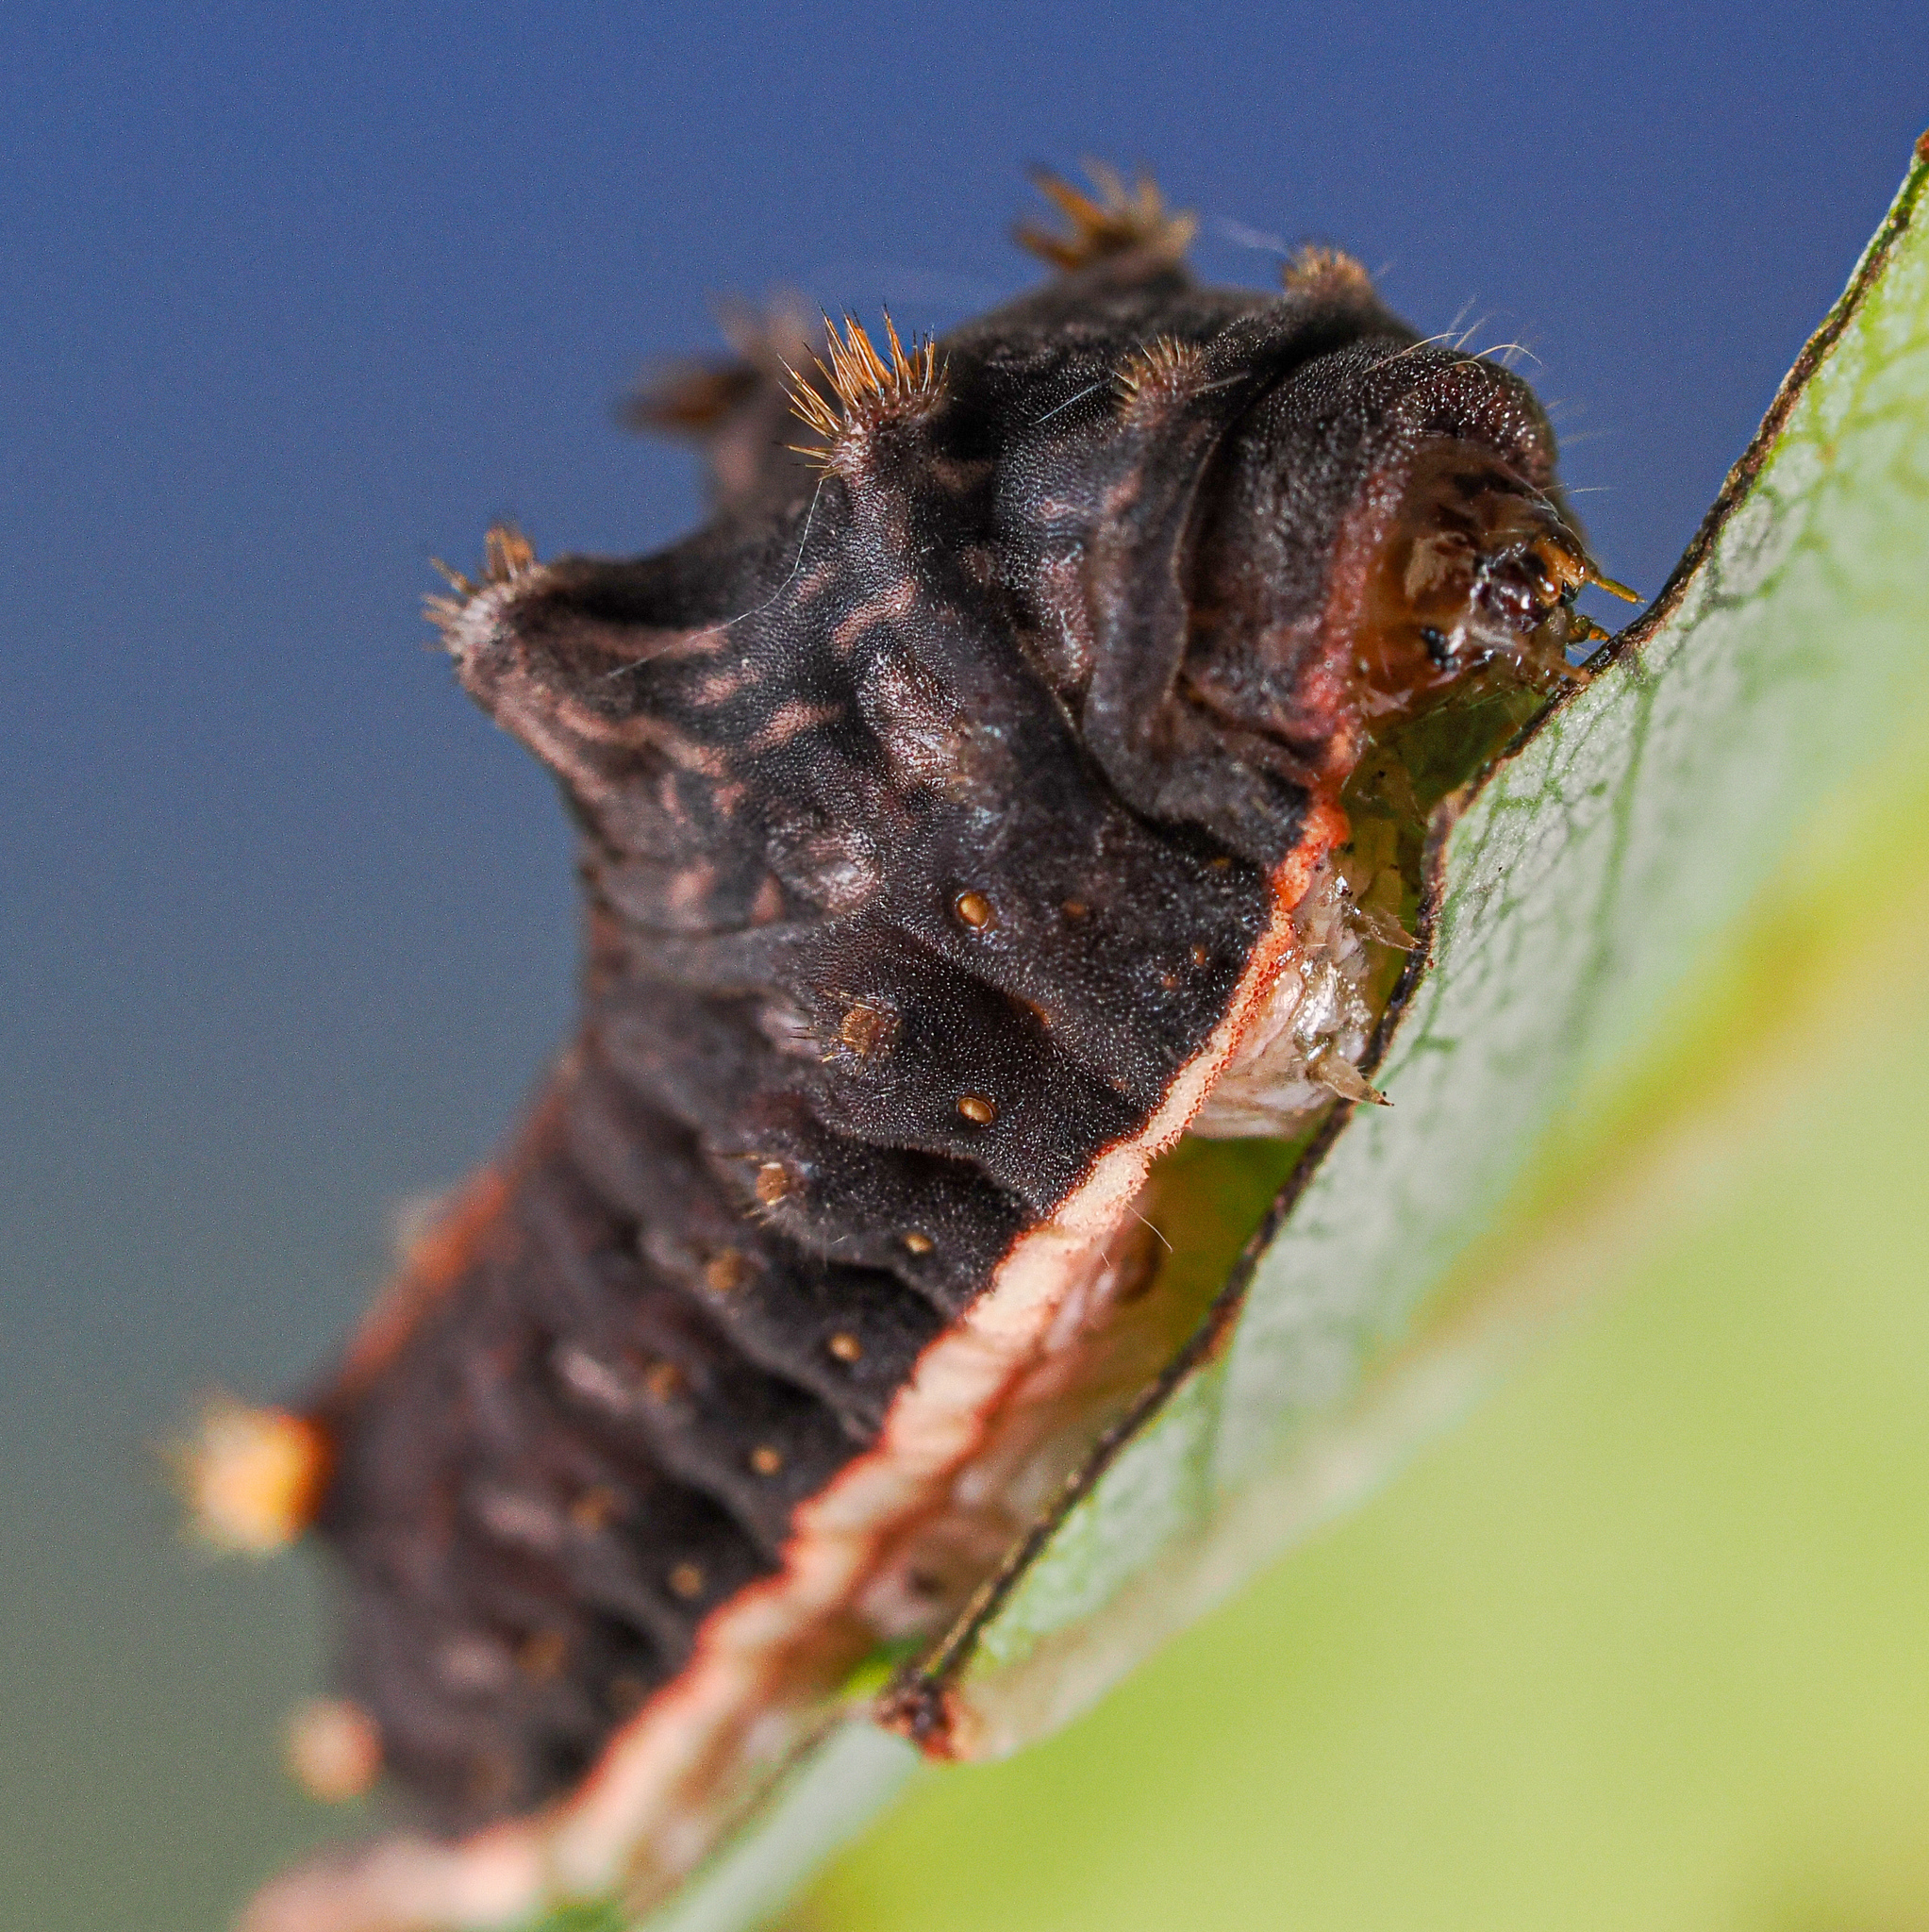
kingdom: Animalia
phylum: Arthropoda
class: Insecta
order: Lepidoptera
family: Limacodidae
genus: Parasa
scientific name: Parasa chloris
